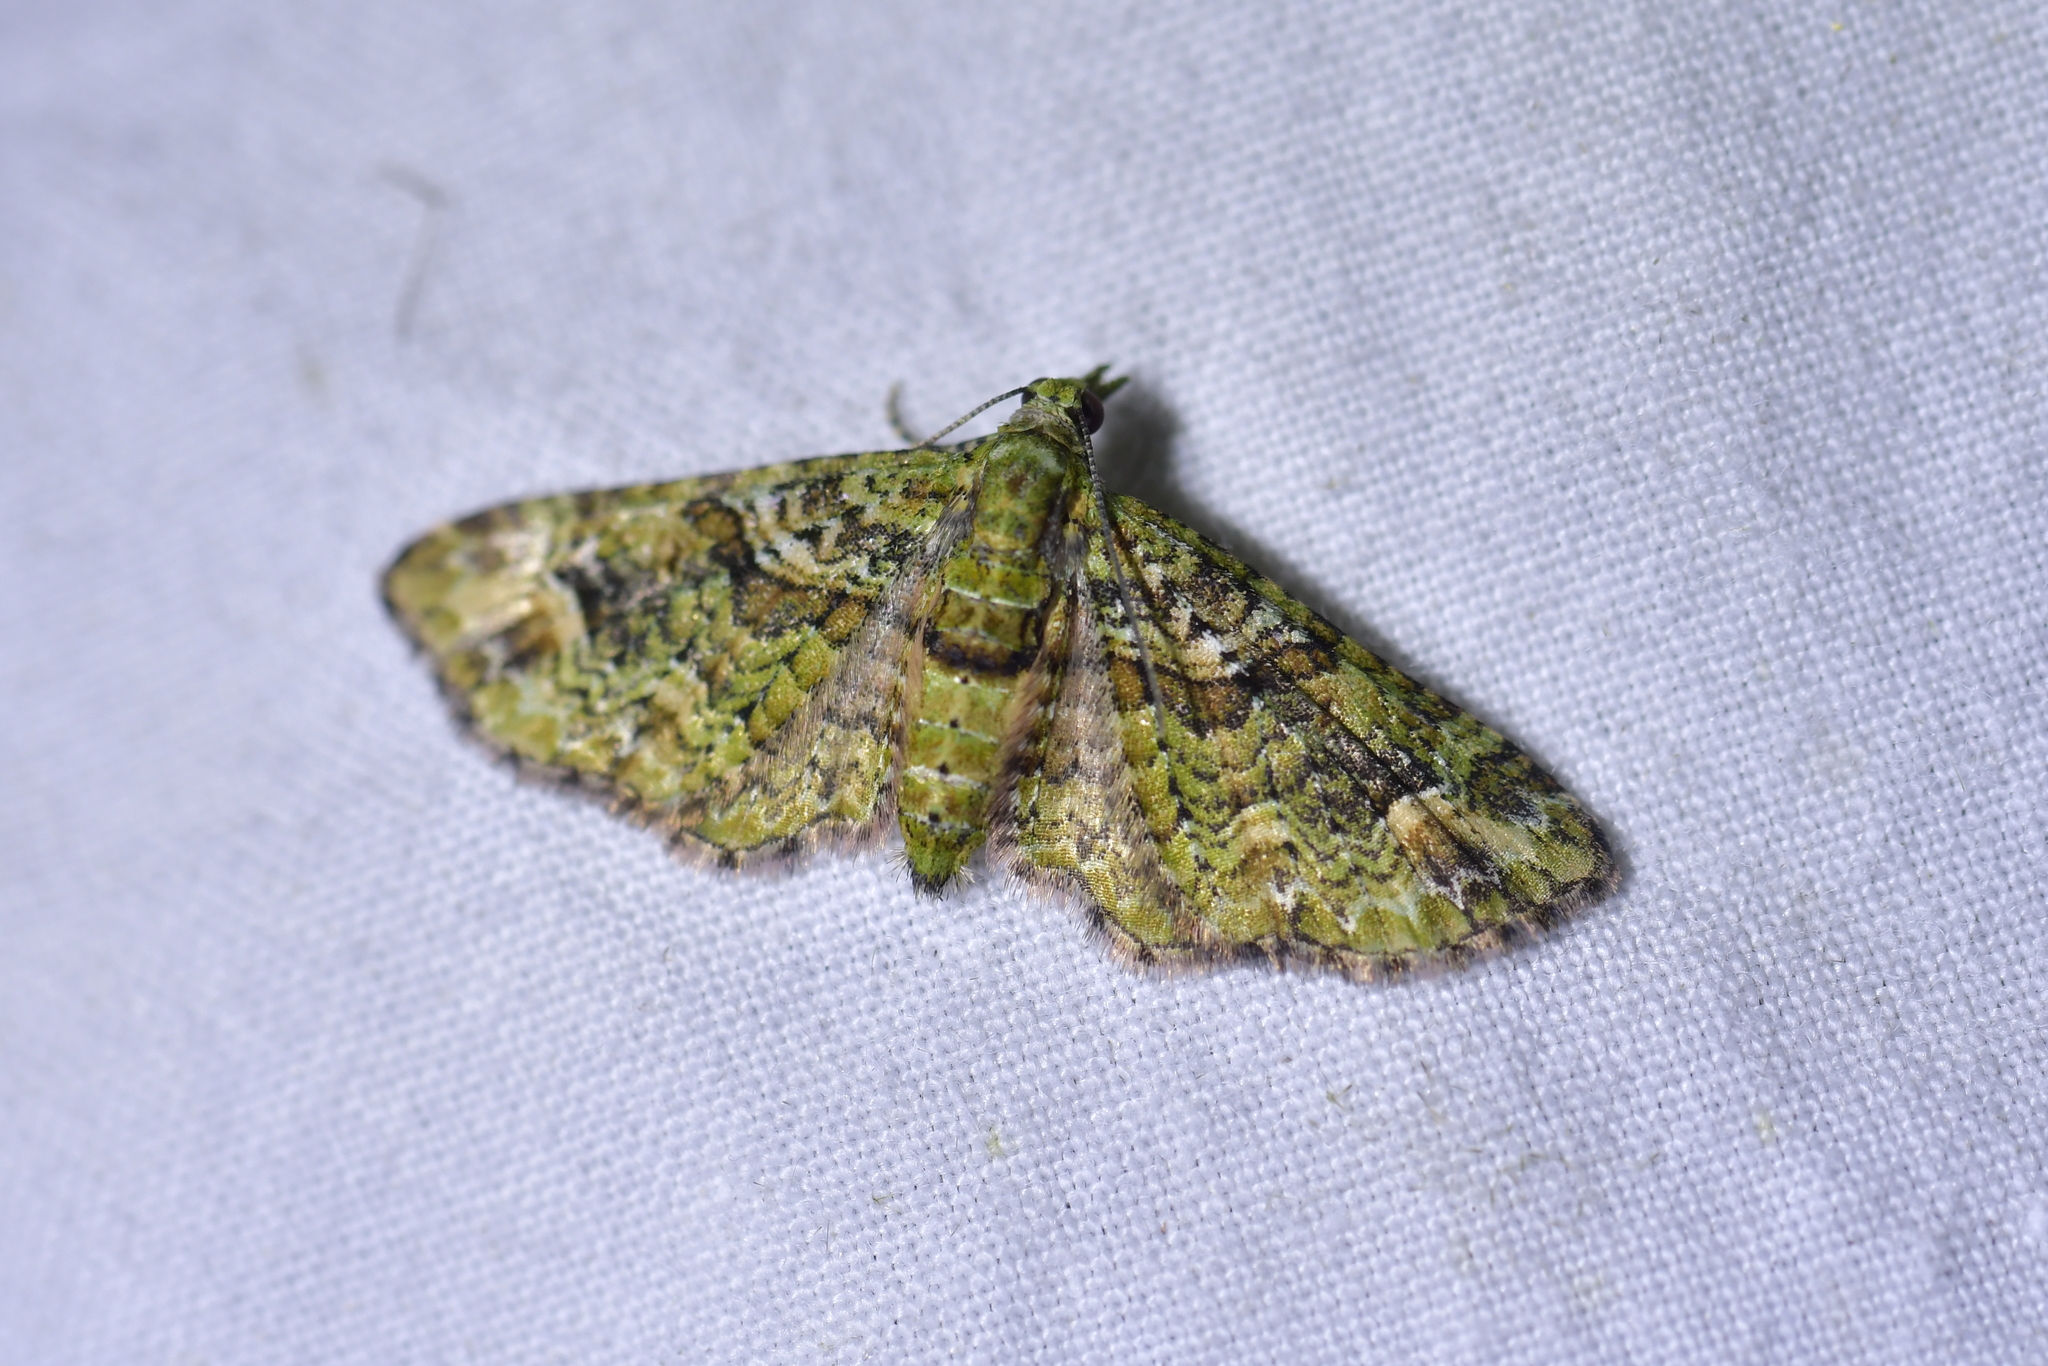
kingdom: Animalia
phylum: Arthropoda
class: Insecta
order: Lepidoptera
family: Geometridae
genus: Idaea
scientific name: Idaea mutanda
